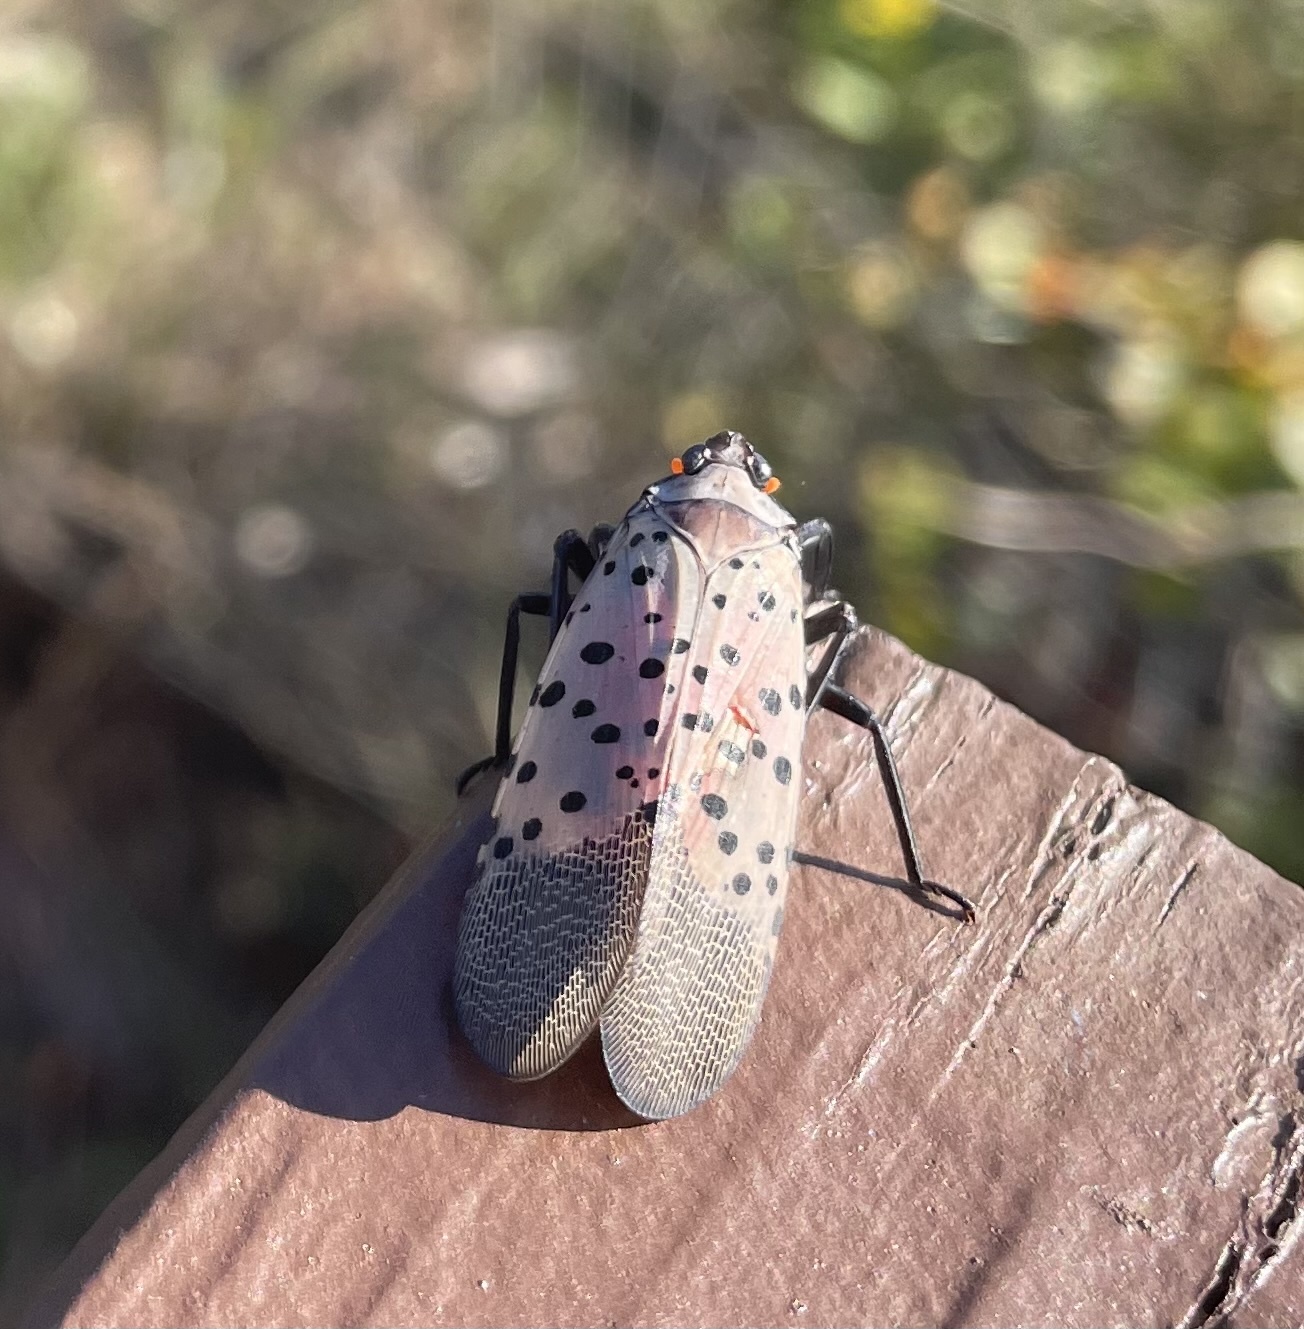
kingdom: Animalia
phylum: Arthropoda
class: Insecta
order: Hemiptera
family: Fulgoridae
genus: Lycorma
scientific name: Lycorma delicatula
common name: Spotted lanternfly
